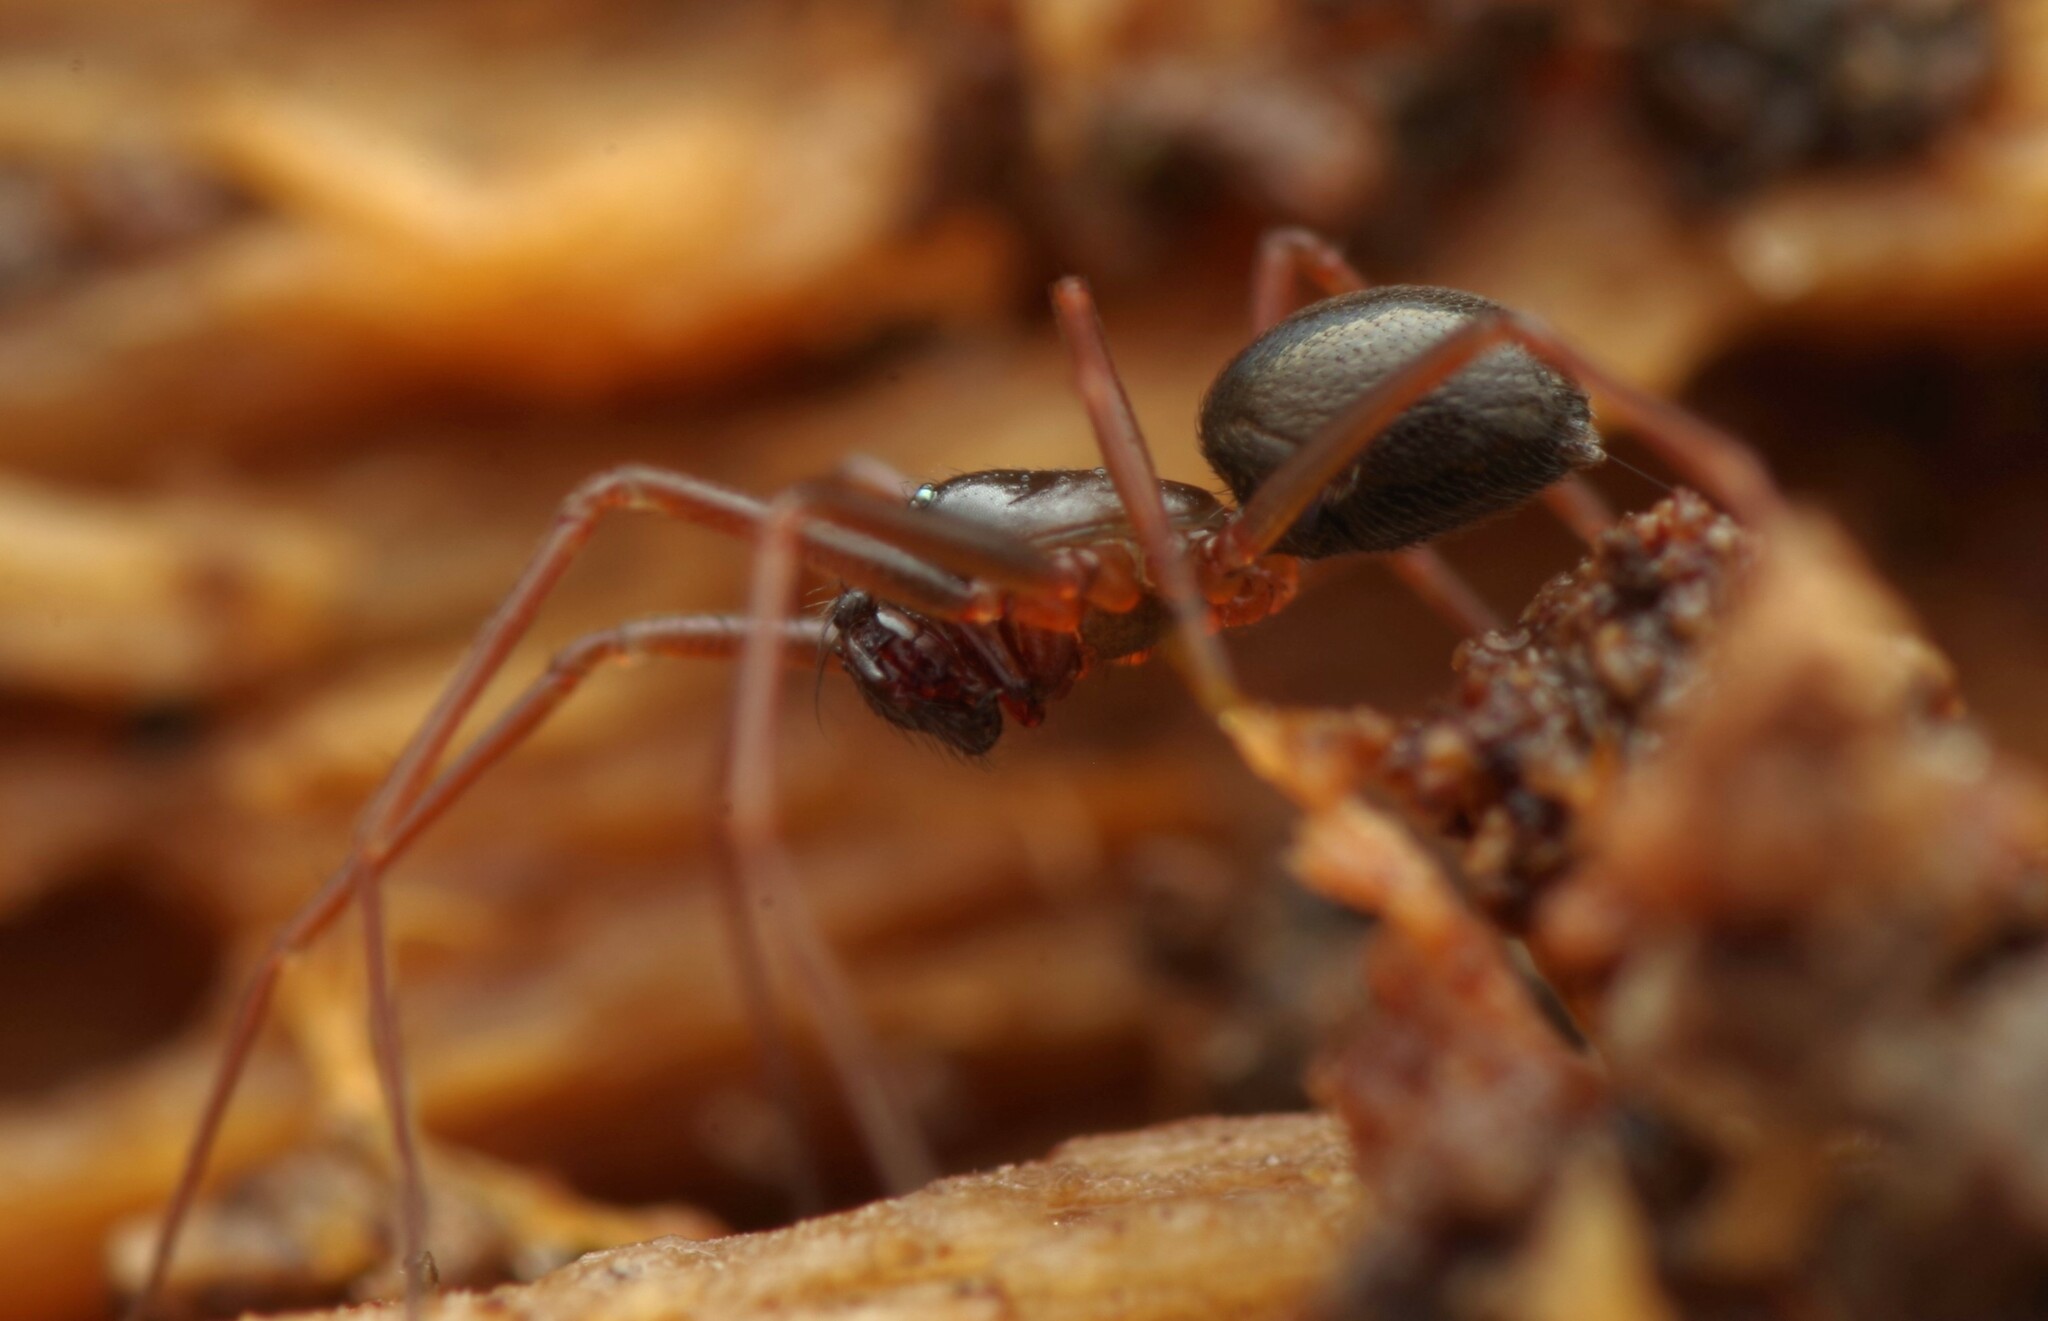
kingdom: Animalia
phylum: Arthropoda
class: Arachnida
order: Araneae
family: Linyphiidae
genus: Diplostyla
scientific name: Diplostyla concolor
